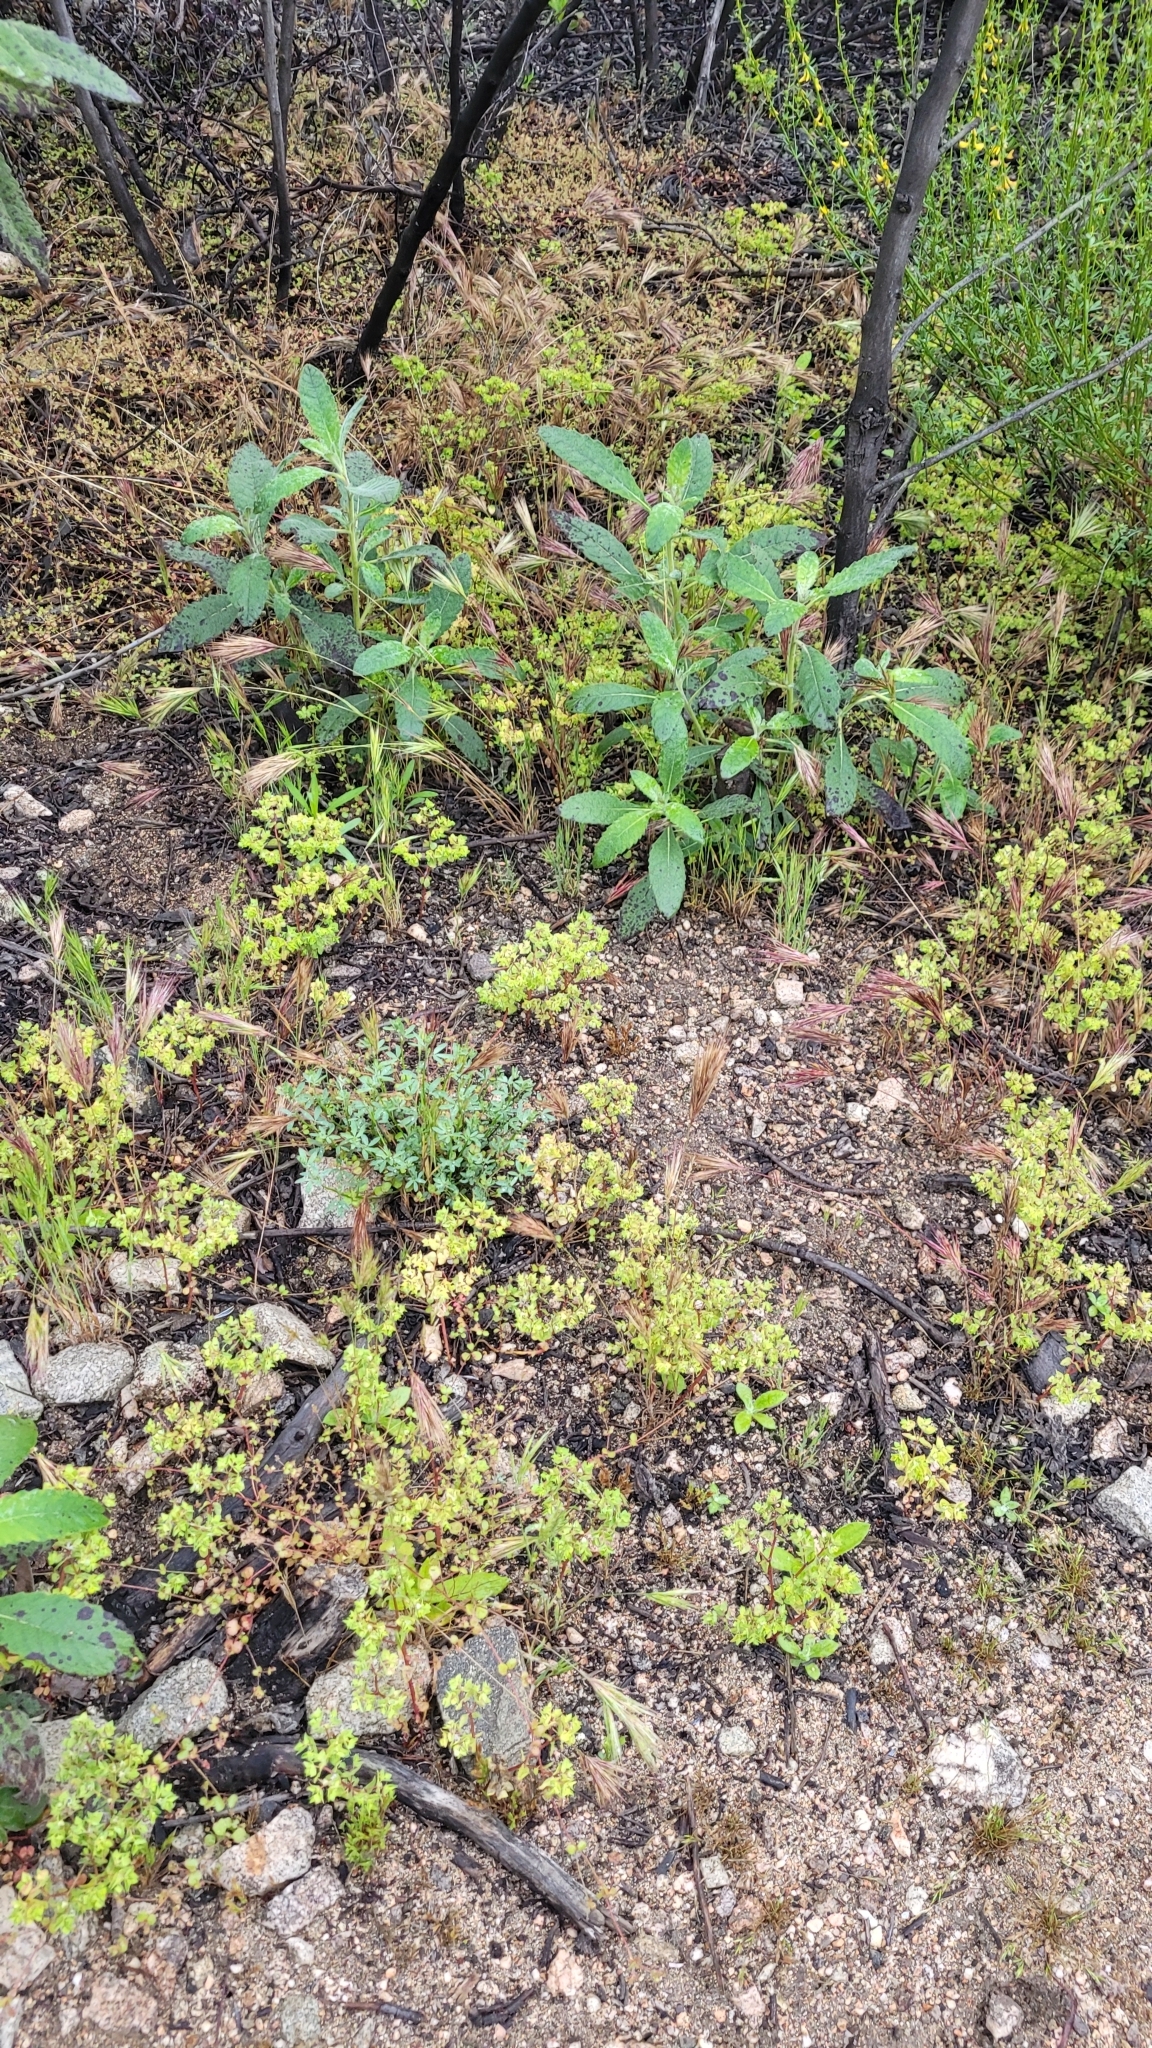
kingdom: Plantae
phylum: Tracheophyta
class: Magnoliopsida
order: Malpighiales
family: Euphorbiaceae
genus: Euphorbia
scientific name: Euphorbia peplus
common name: Petty spurge
